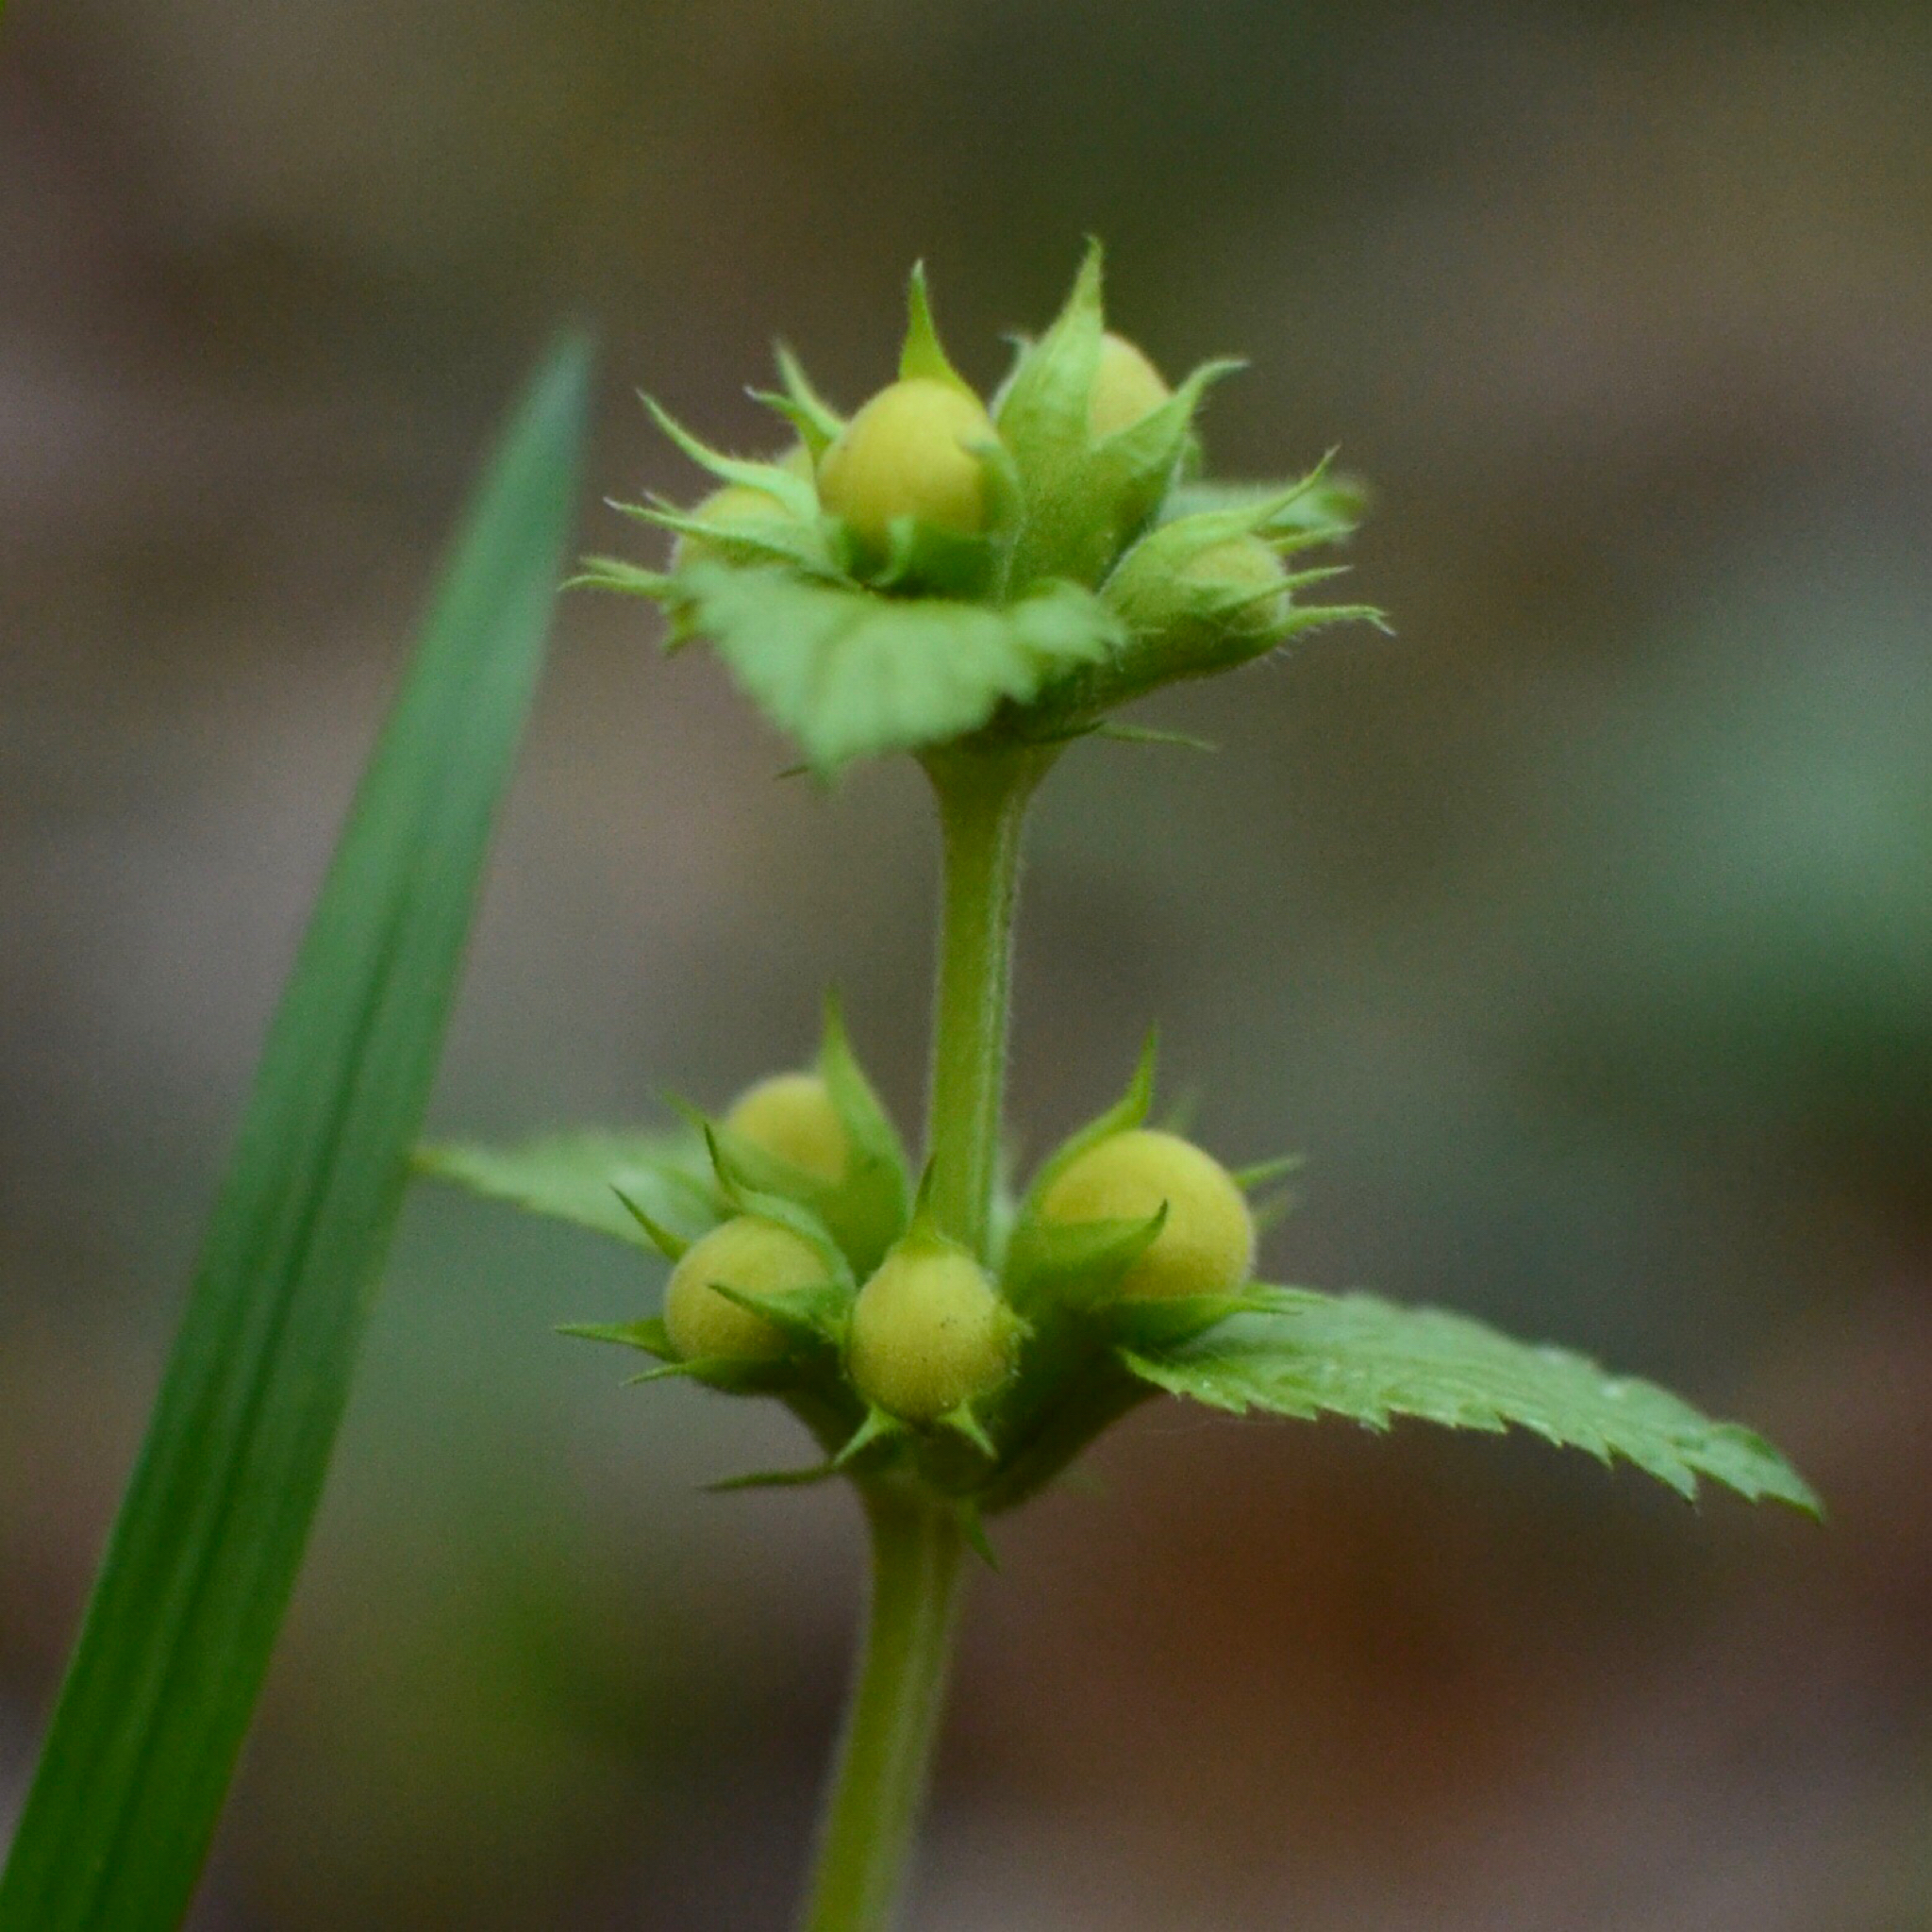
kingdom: Plantae
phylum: Tracheophyta
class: Magnoliopsida
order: Lamiales
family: Lamiaceae
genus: Lamium
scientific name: Lamium galeobdolon
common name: Yellow archangel
